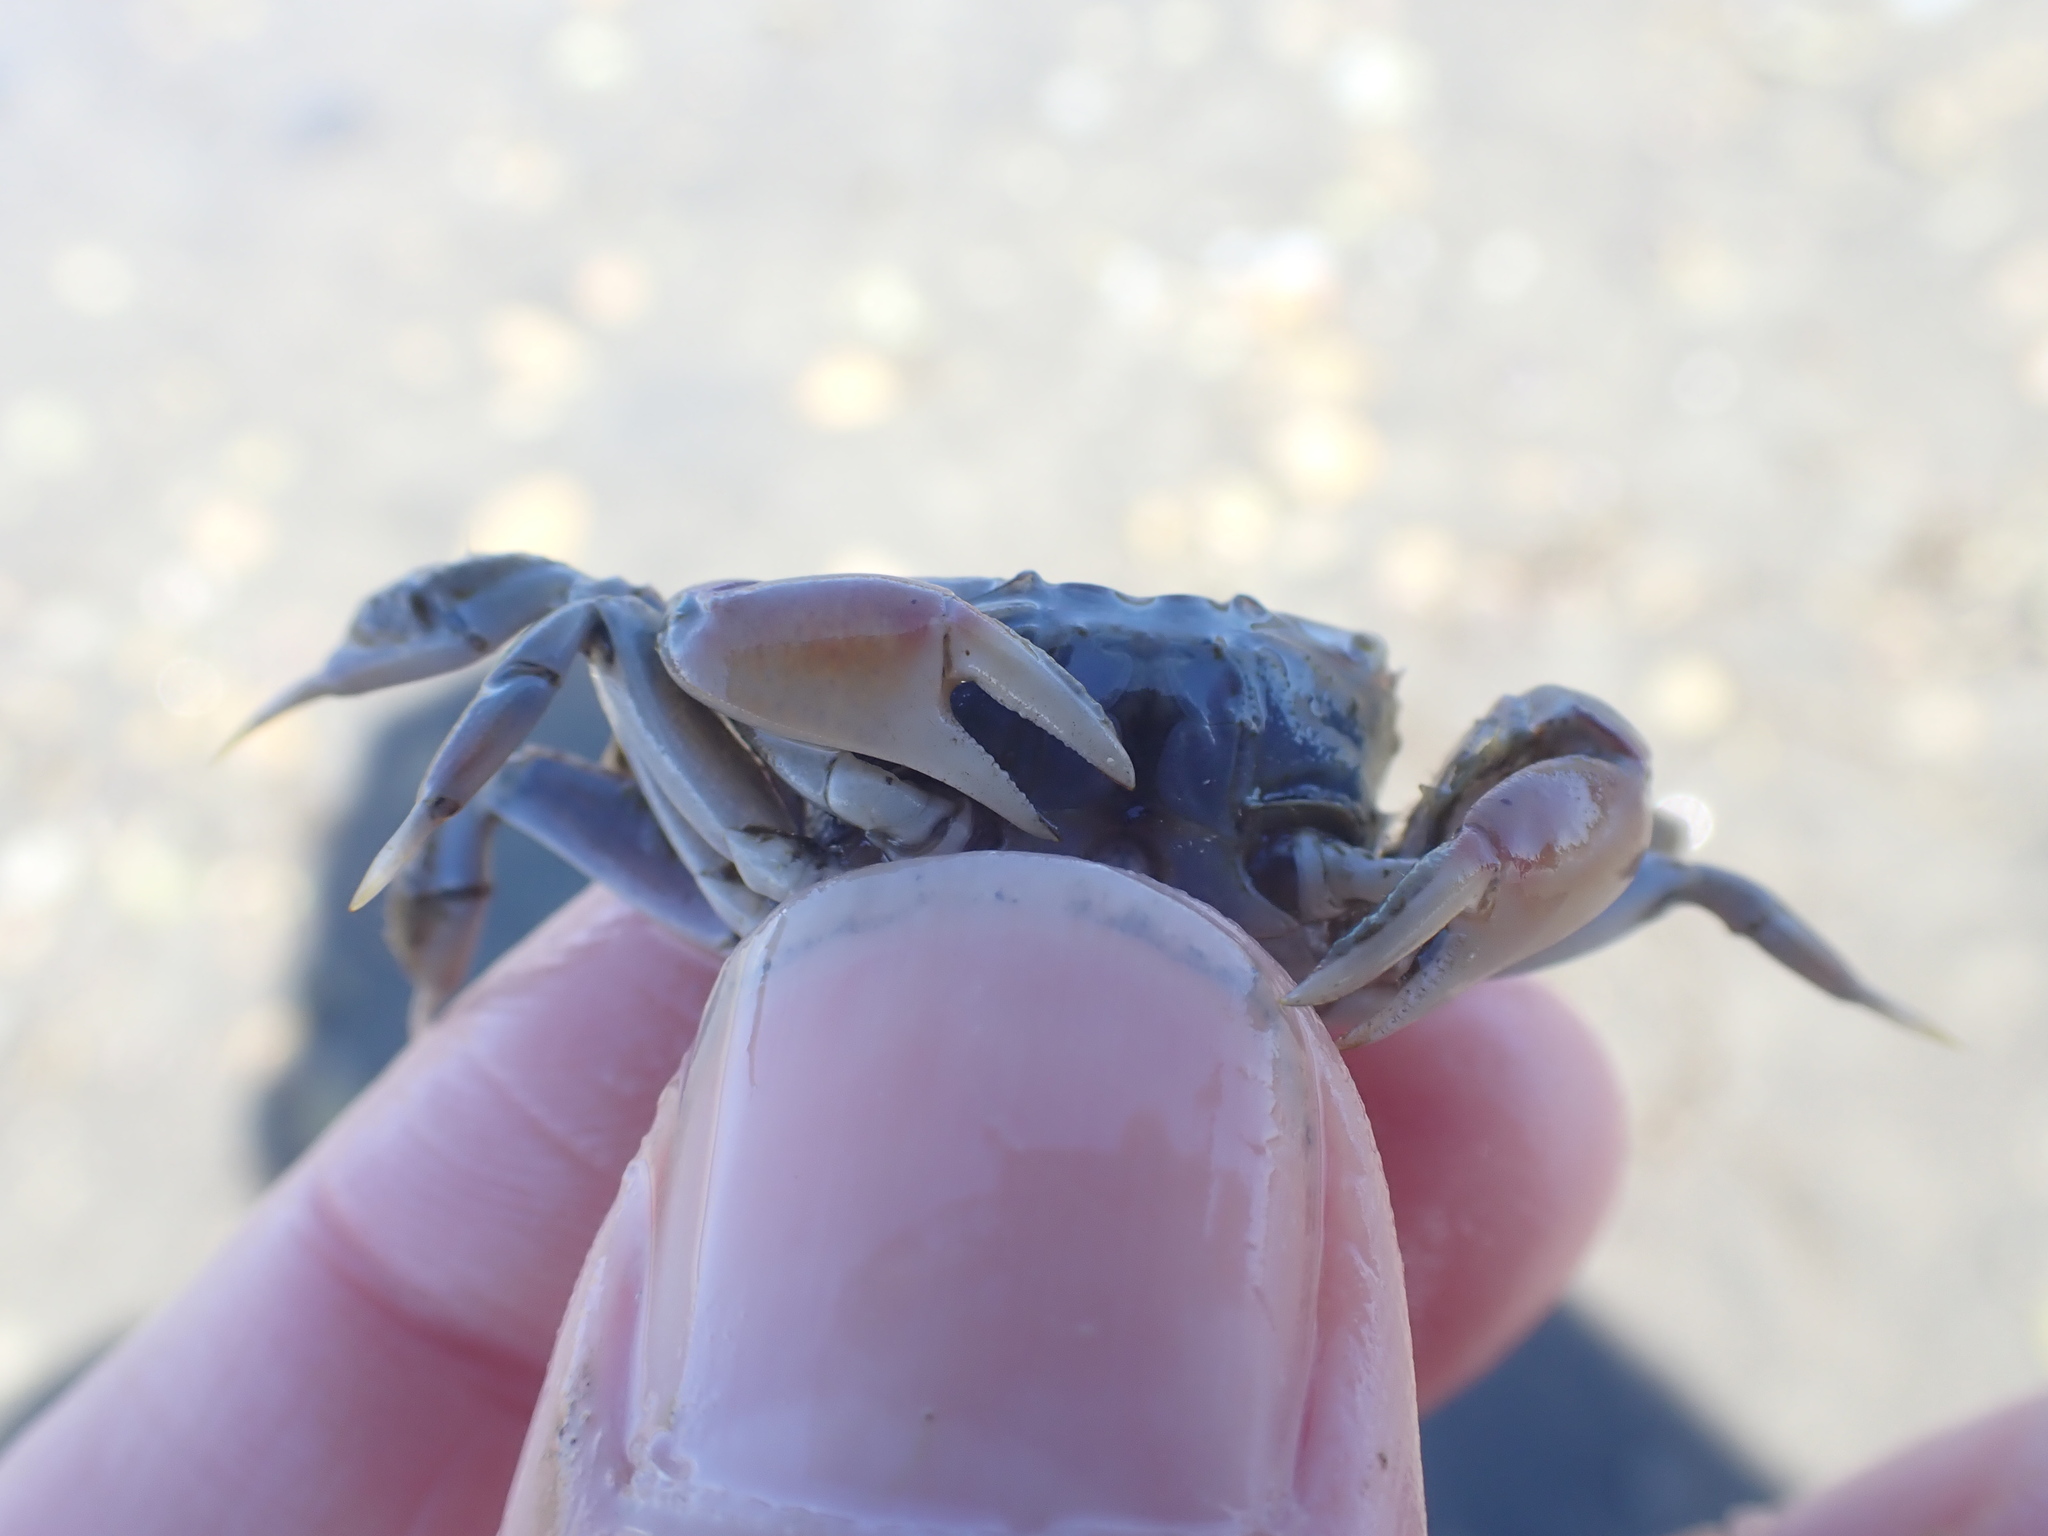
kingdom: Animalia
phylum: Arthropoda
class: Malacostraca
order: Decapoda
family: Macrophthalmidae
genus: Hemiplax
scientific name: Hemiplax hirtipes
